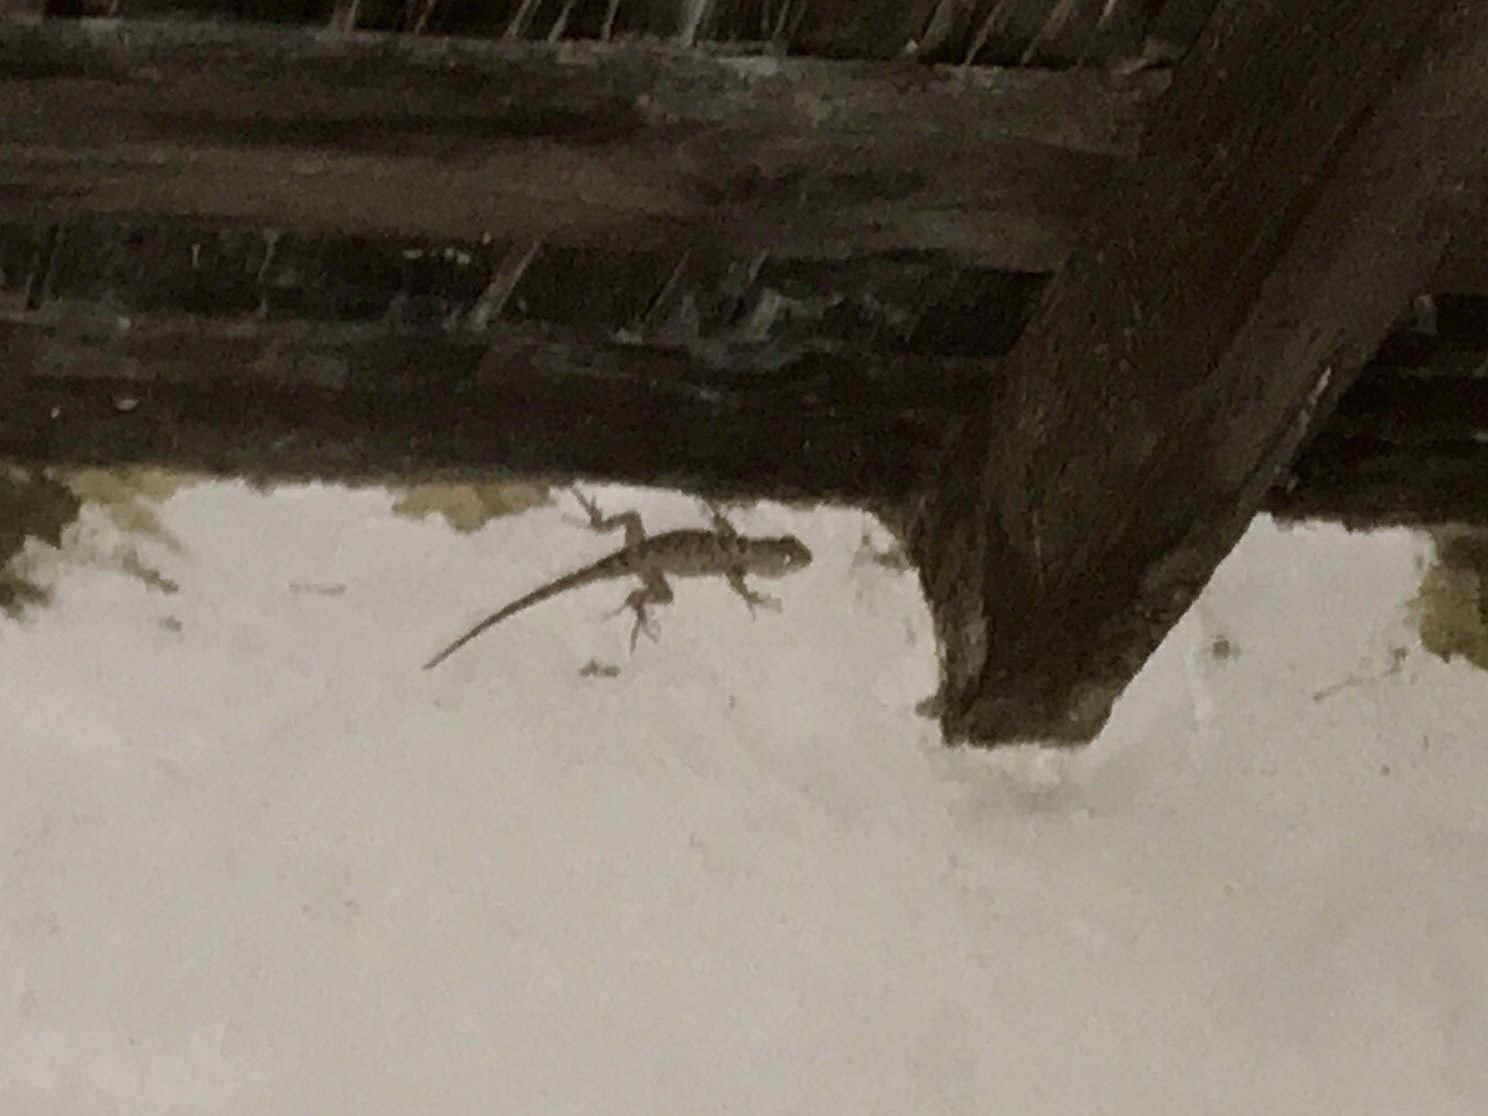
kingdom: Animalia
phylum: Chordata
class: Squamata
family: Phrynosomatidae
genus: Sceloporus
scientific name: Sceloporus clarkii
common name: Clark's spiny lizard
